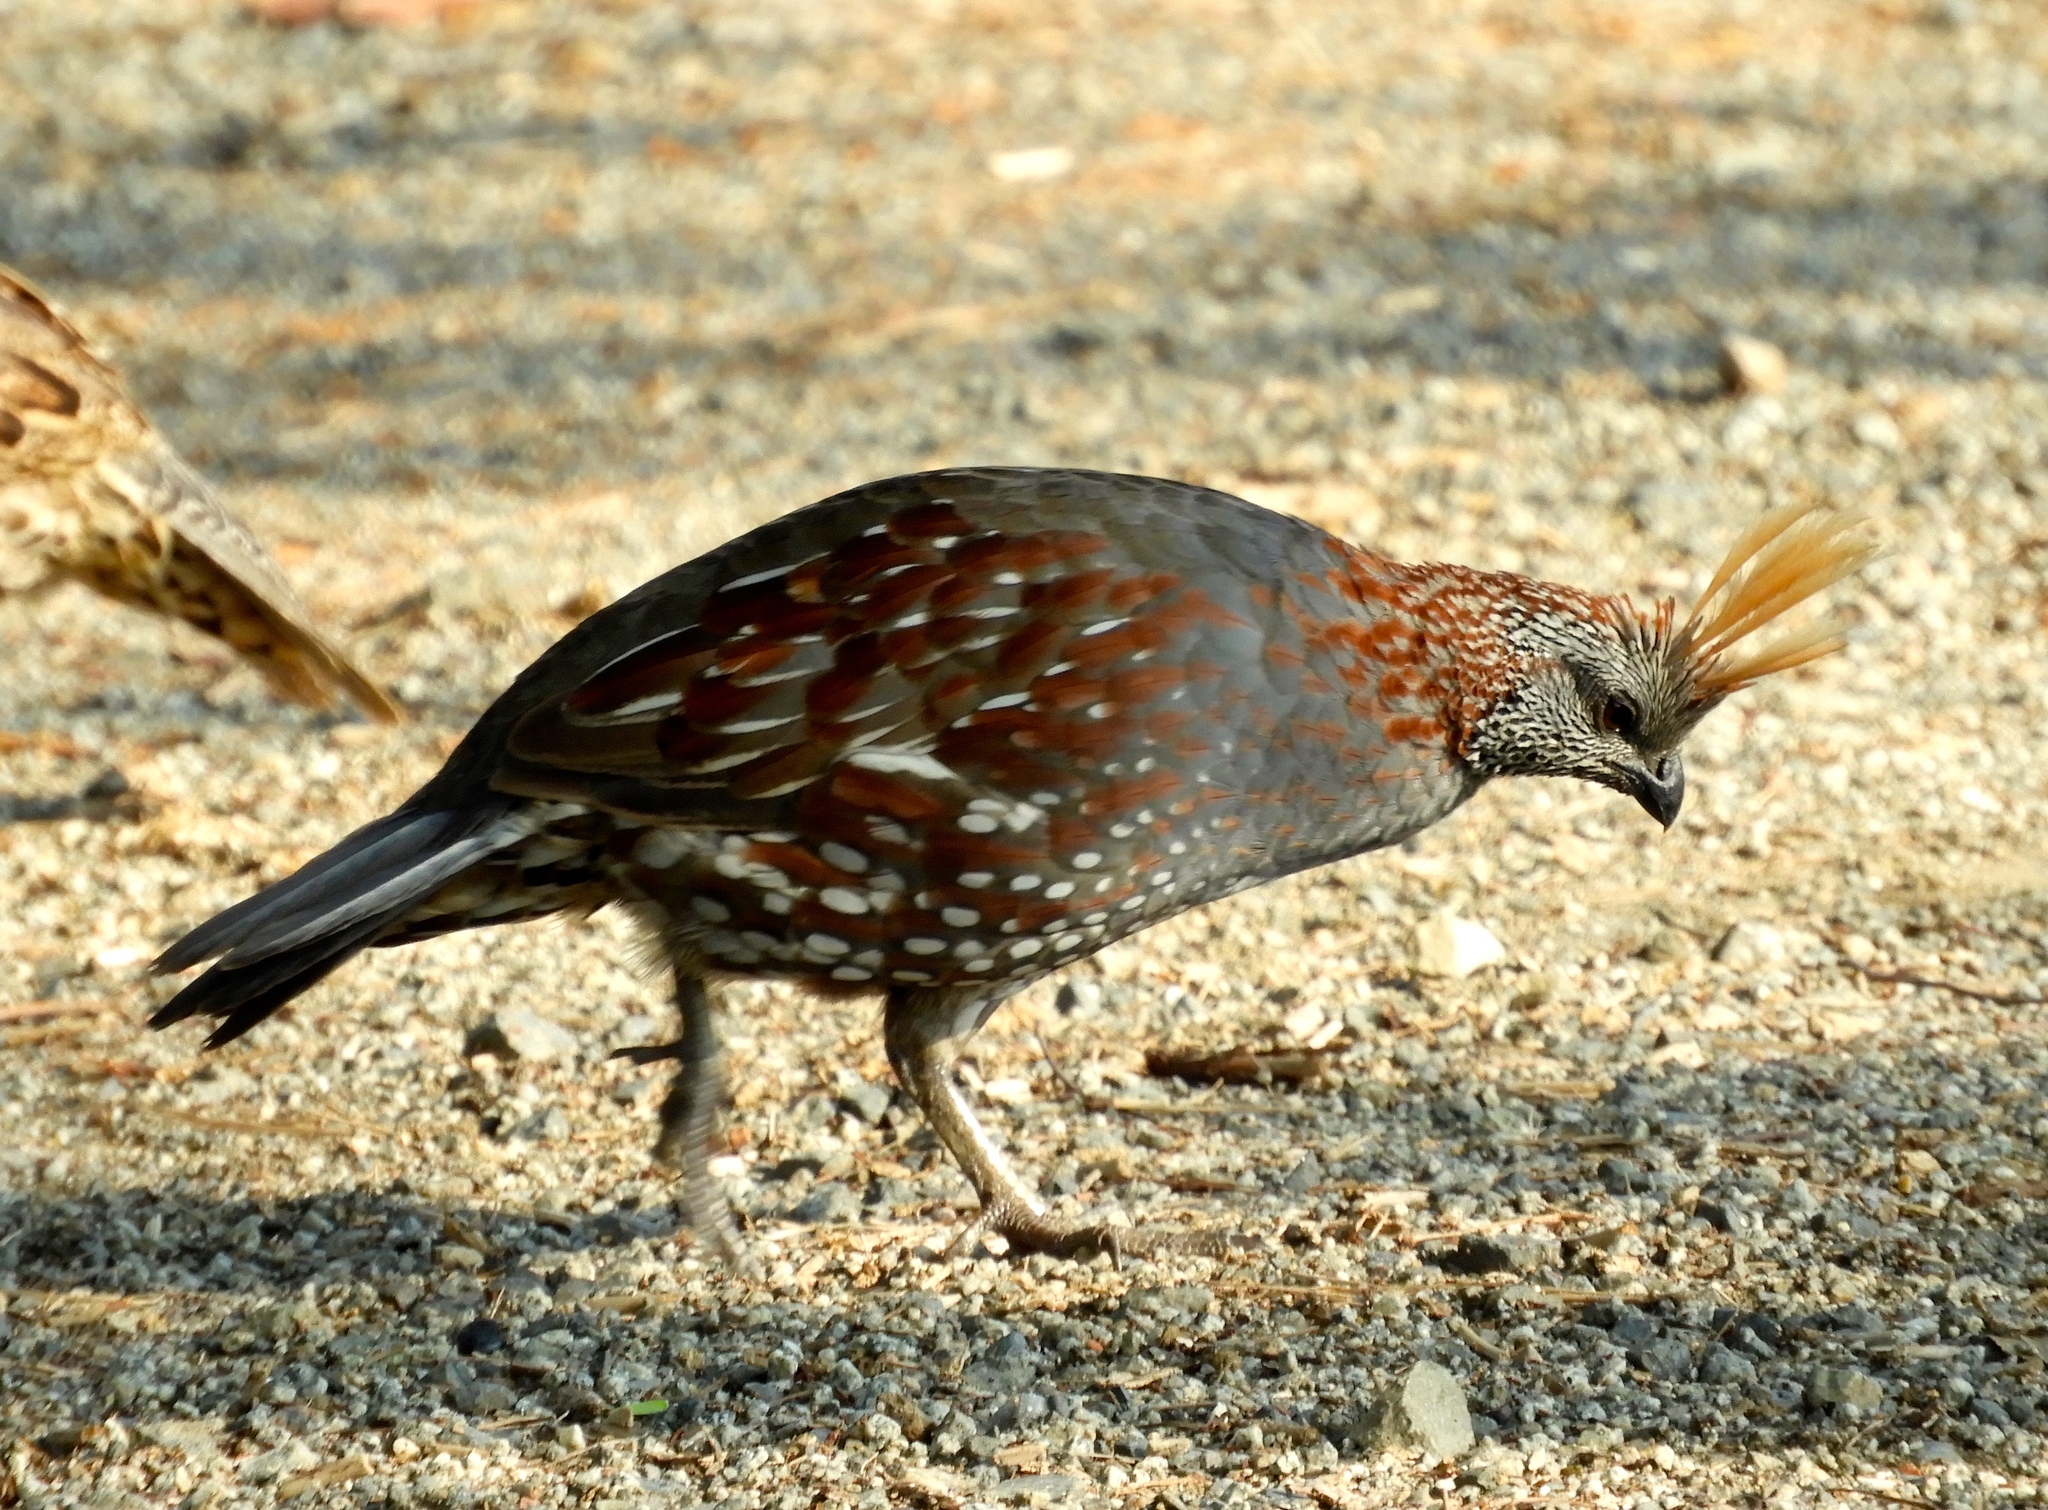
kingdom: Animalia
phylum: Chordata
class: Aves
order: Galliformes
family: Odontophoridae
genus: Callipepla
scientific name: Callipepla douglasii
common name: Elegant quail
